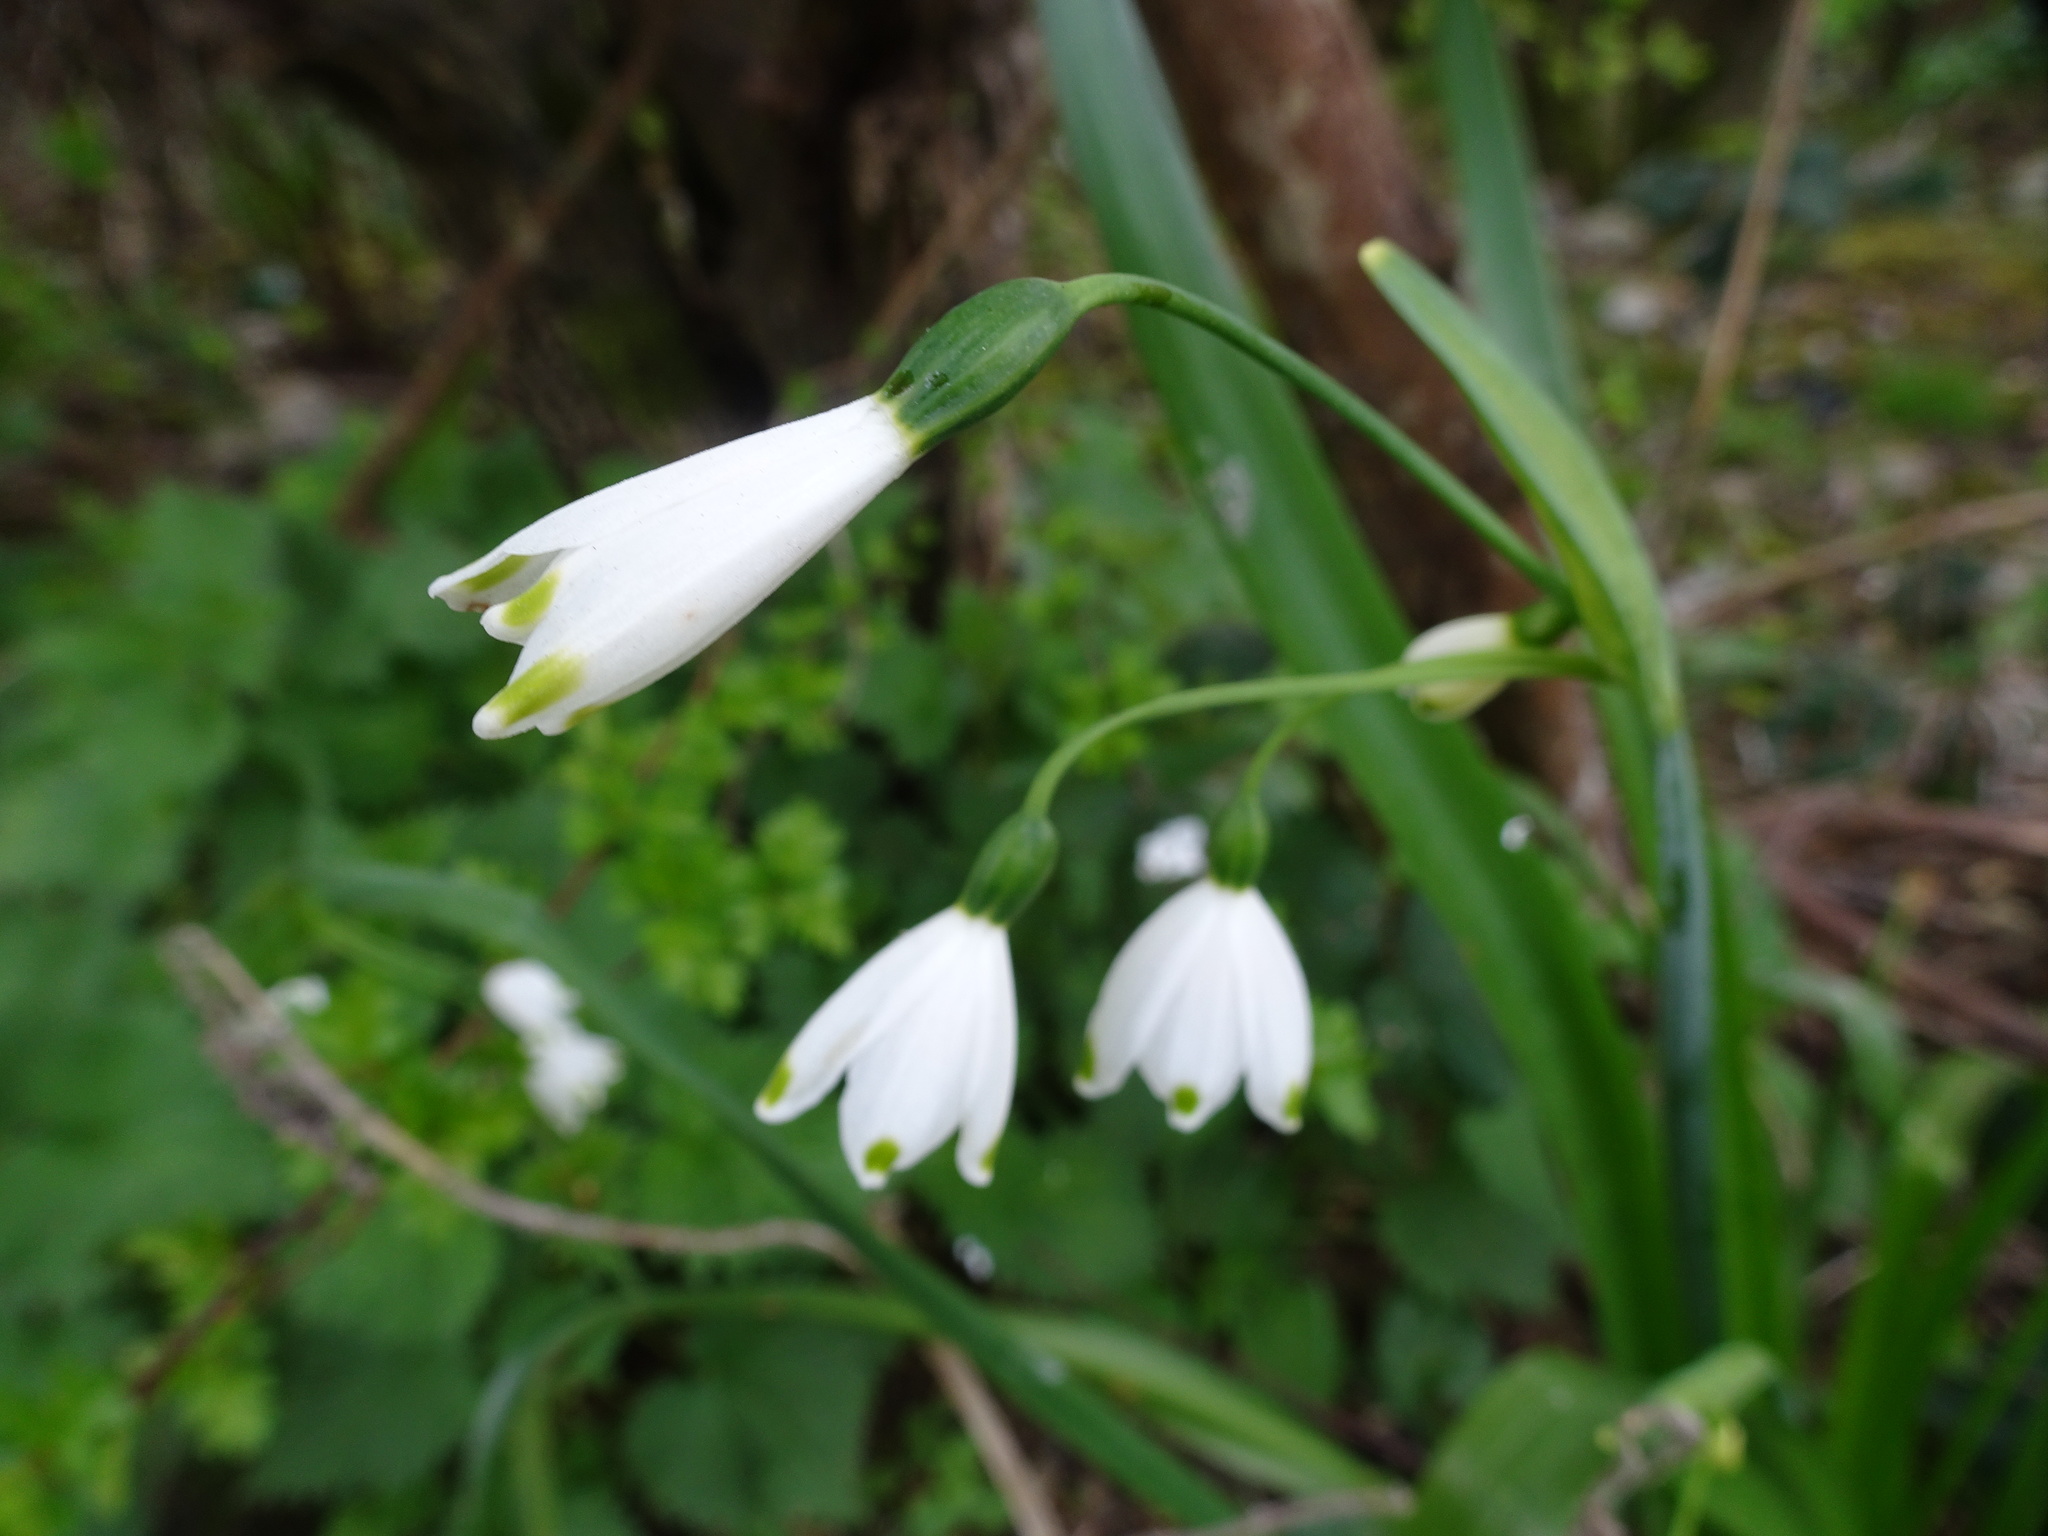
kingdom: Plantae
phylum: Tracheophyta
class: Liliopsida
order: Asparagales
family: Amaryllidaceae
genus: Leucojum
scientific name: Leucojum aestivum
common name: Summer snowflake
